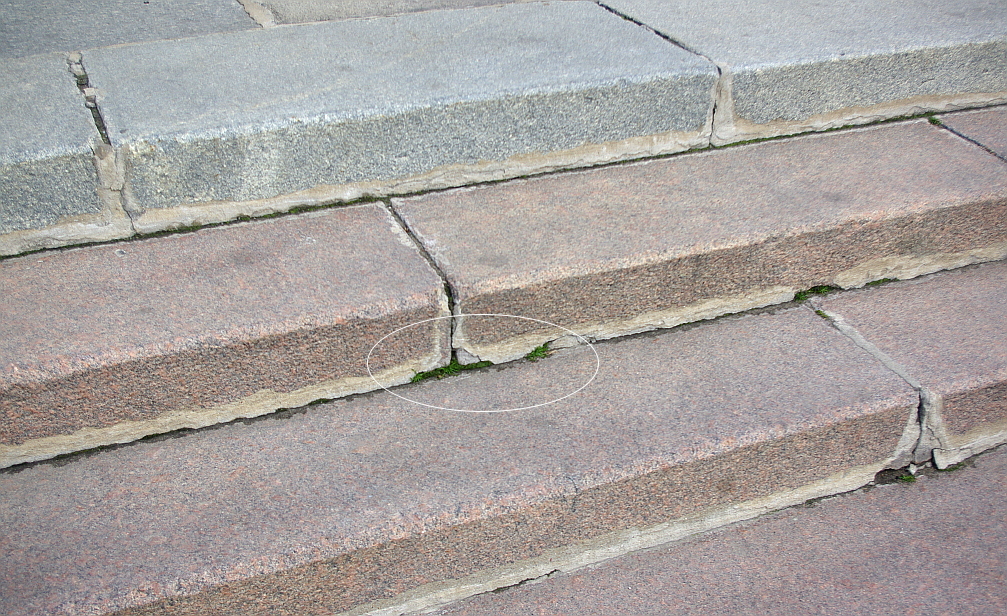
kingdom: Plantae
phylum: Tracheophyta
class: Magnoliopsida
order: Caryophyllales
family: Caryophyllaceae
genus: Sagina
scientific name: Sagina procumbens
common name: Procumbent pearlwort
